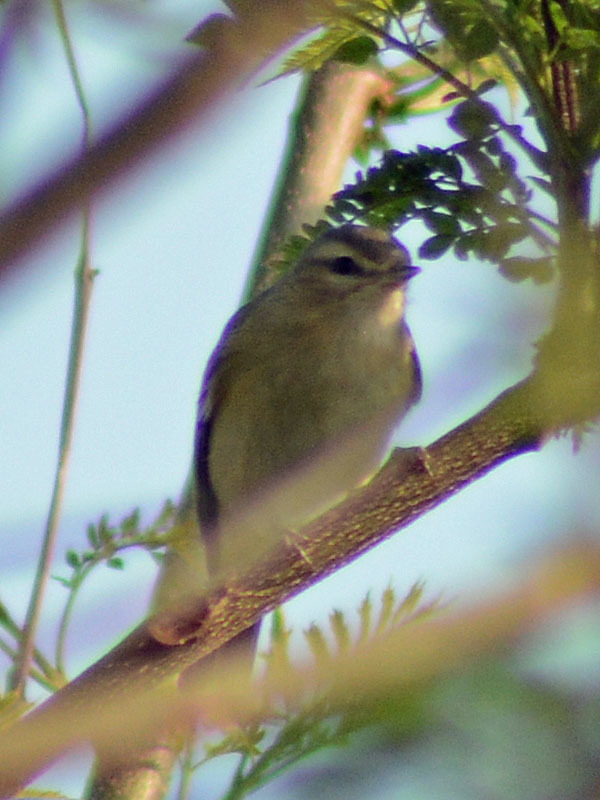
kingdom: Animalia
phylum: Chordata
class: Aves
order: Passeriformes
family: Vireonidae
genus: Vireo
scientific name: Vireo gilvus
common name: Warbling vireo
